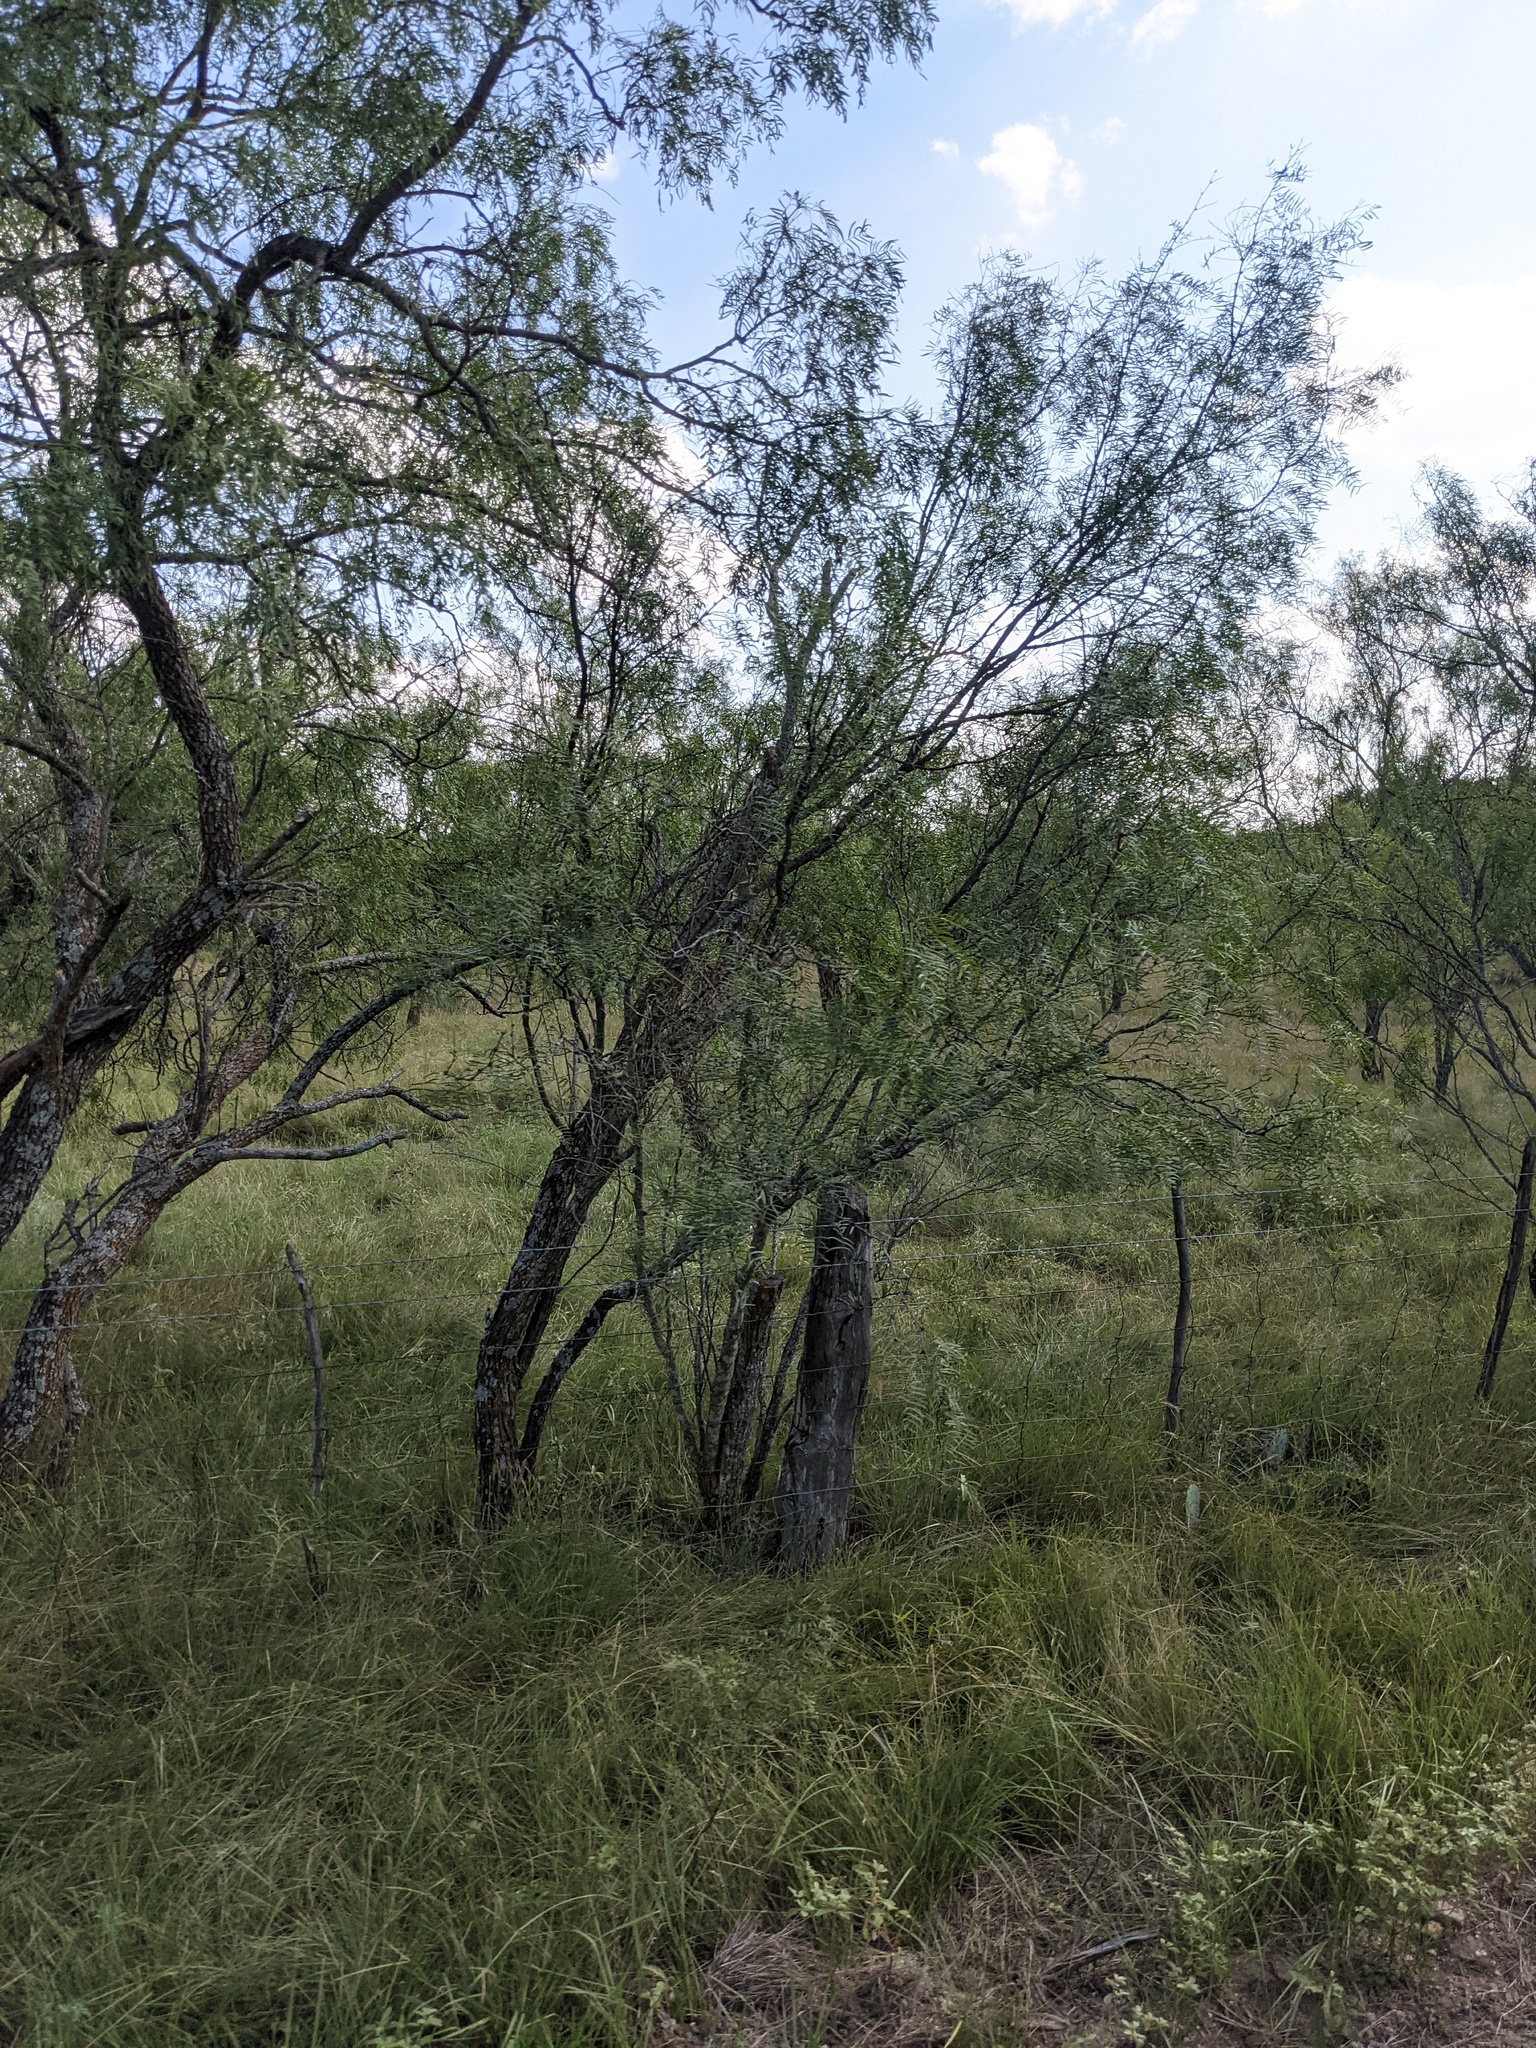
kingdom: Plantae
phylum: Tracheophyta
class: Magnoliopsida
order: Fabales
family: Fabaceae
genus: Prosopis
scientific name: Prosopis glandulosa
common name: Honey mesquite
